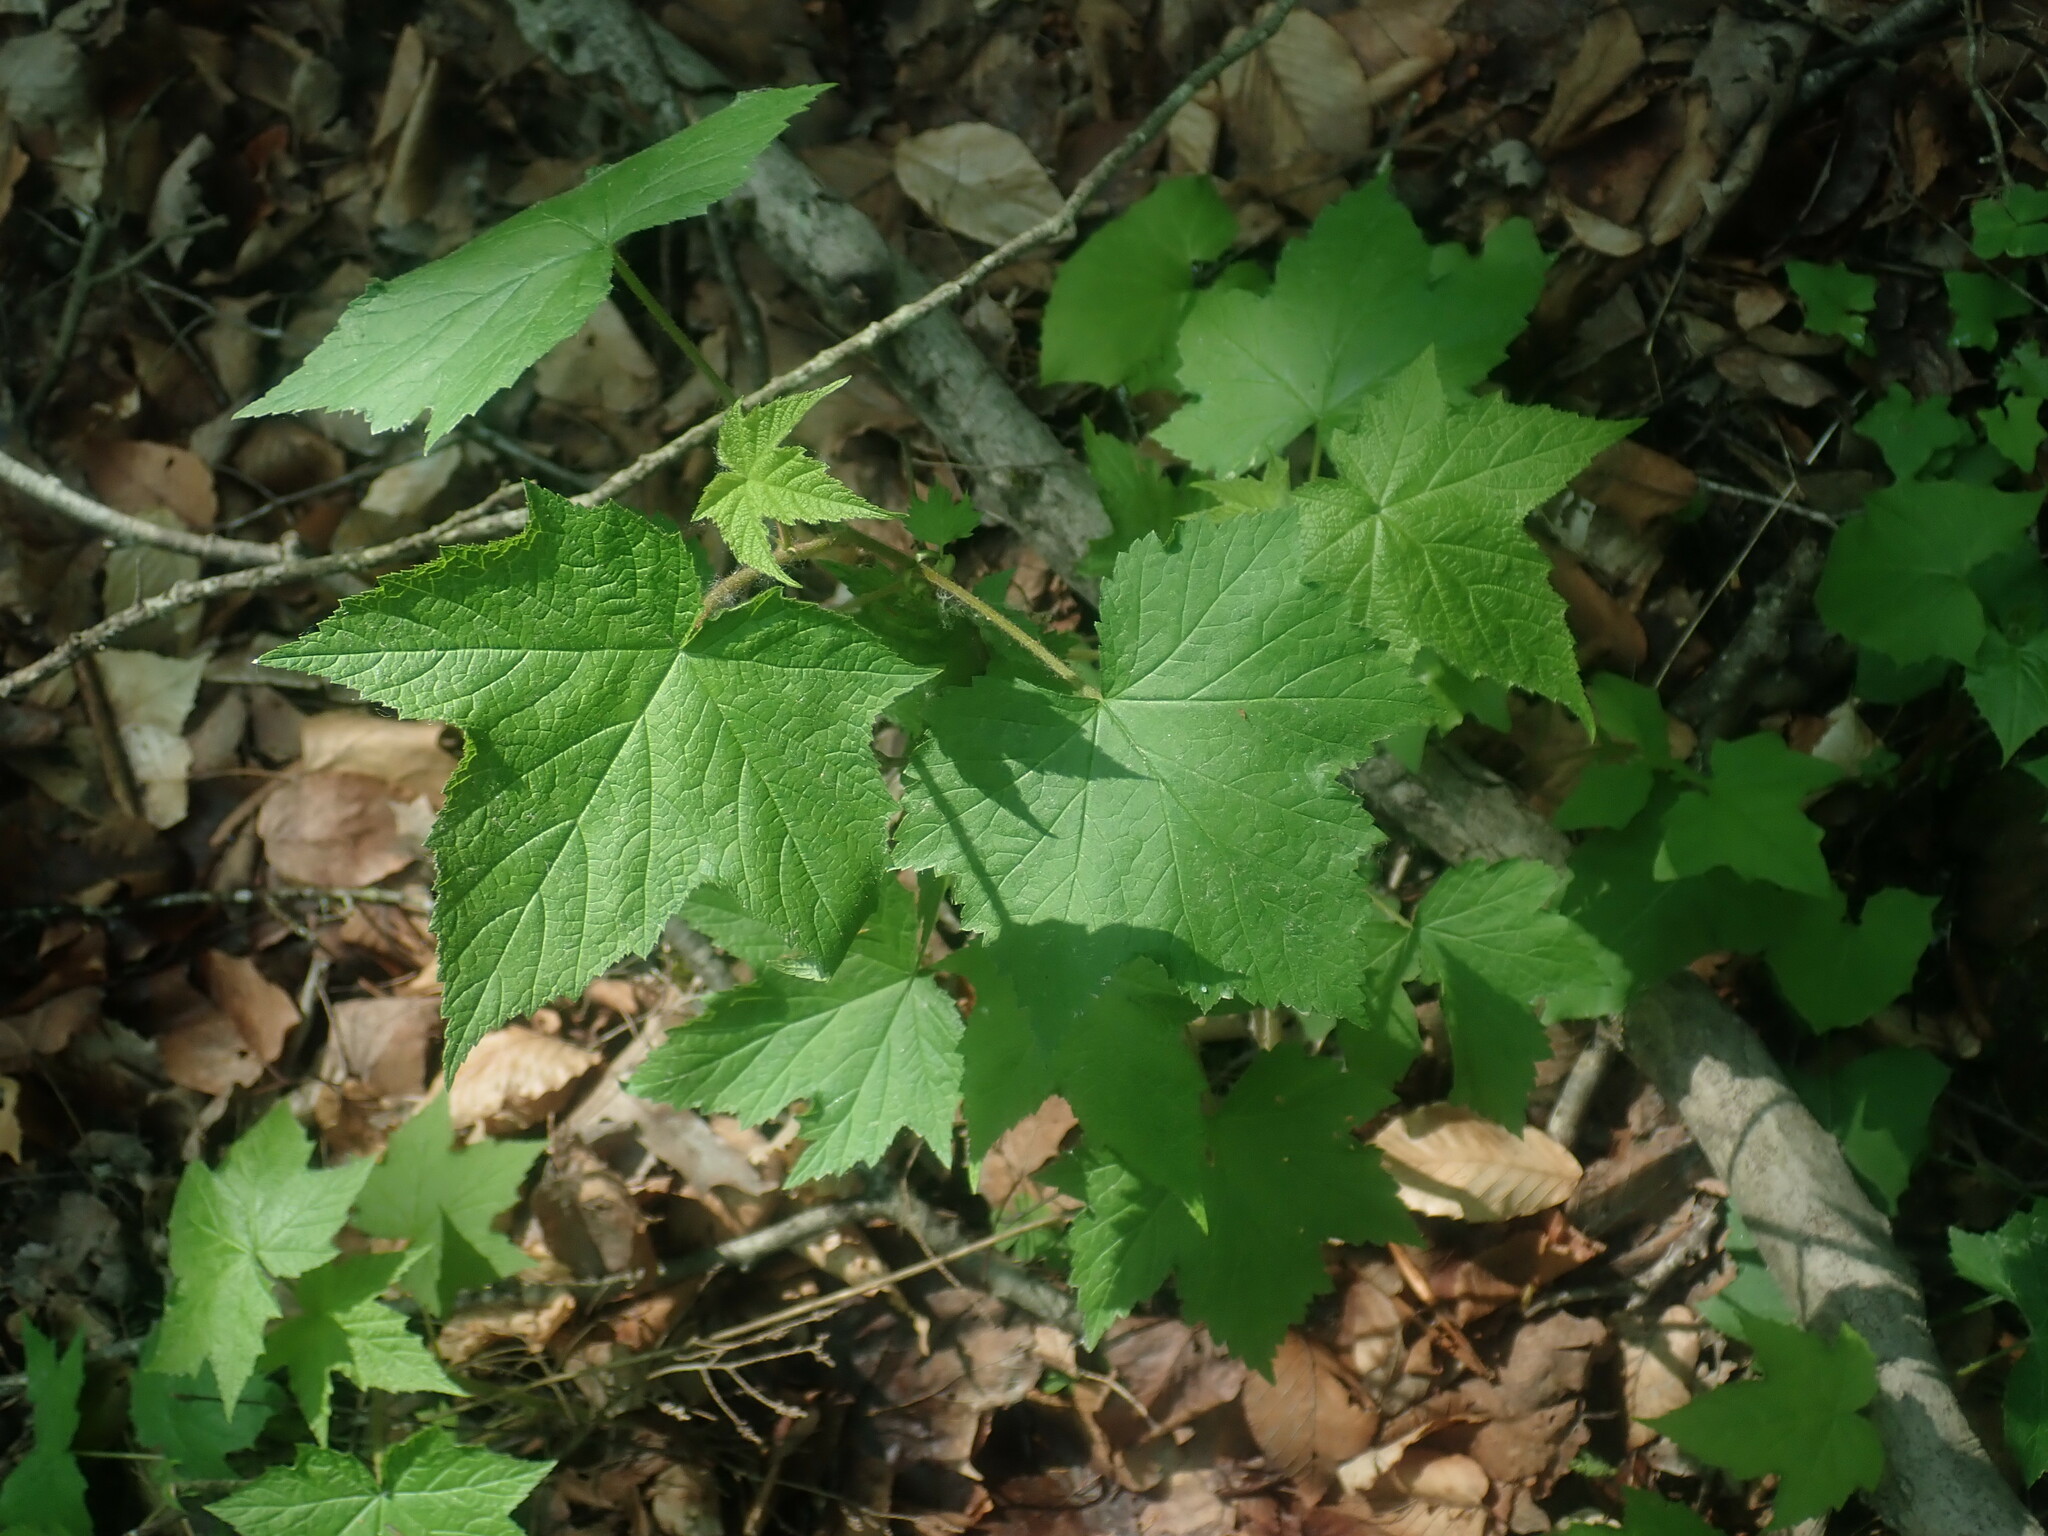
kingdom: Plantae
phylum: Tracheophyta
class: Magnoliopsida
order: Rosales
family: Rosaceae
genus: Rubus
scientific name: Rubus odoratus
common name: Purple-flowered raspberry
